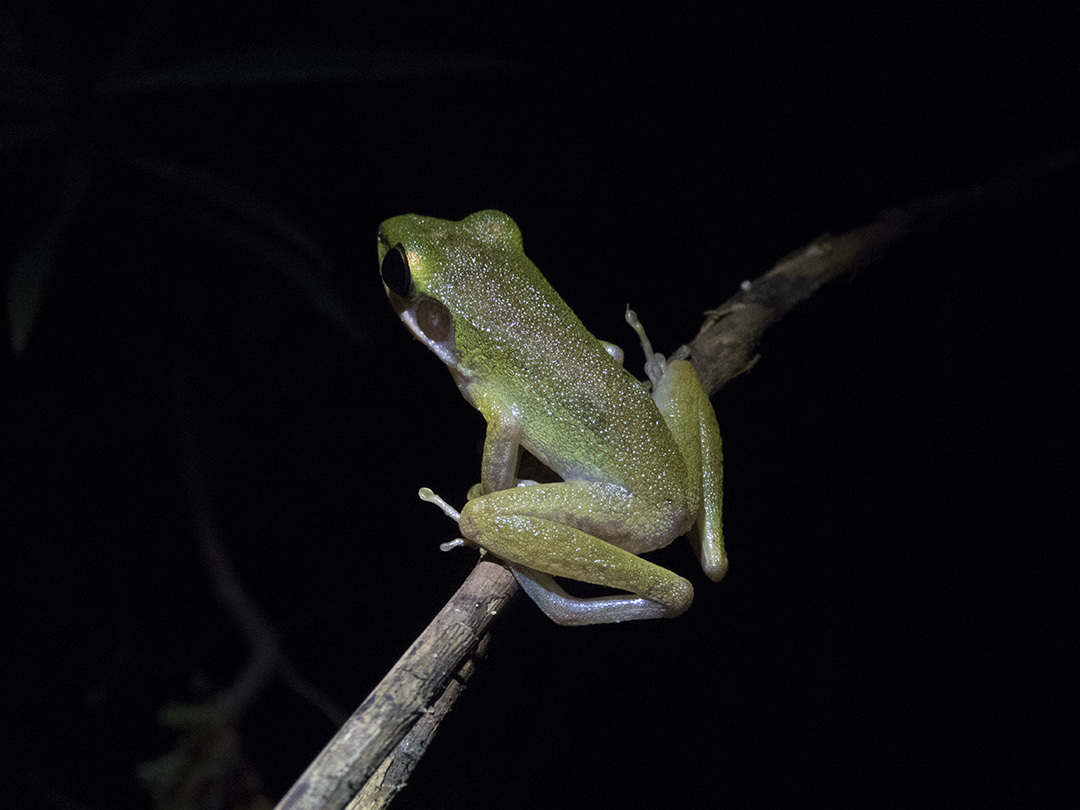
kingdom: Animalia
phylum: Chordata
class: Amphibia
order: Anura
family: Ranidae
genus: Chalcorana
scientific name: Chalcorana raniceps
